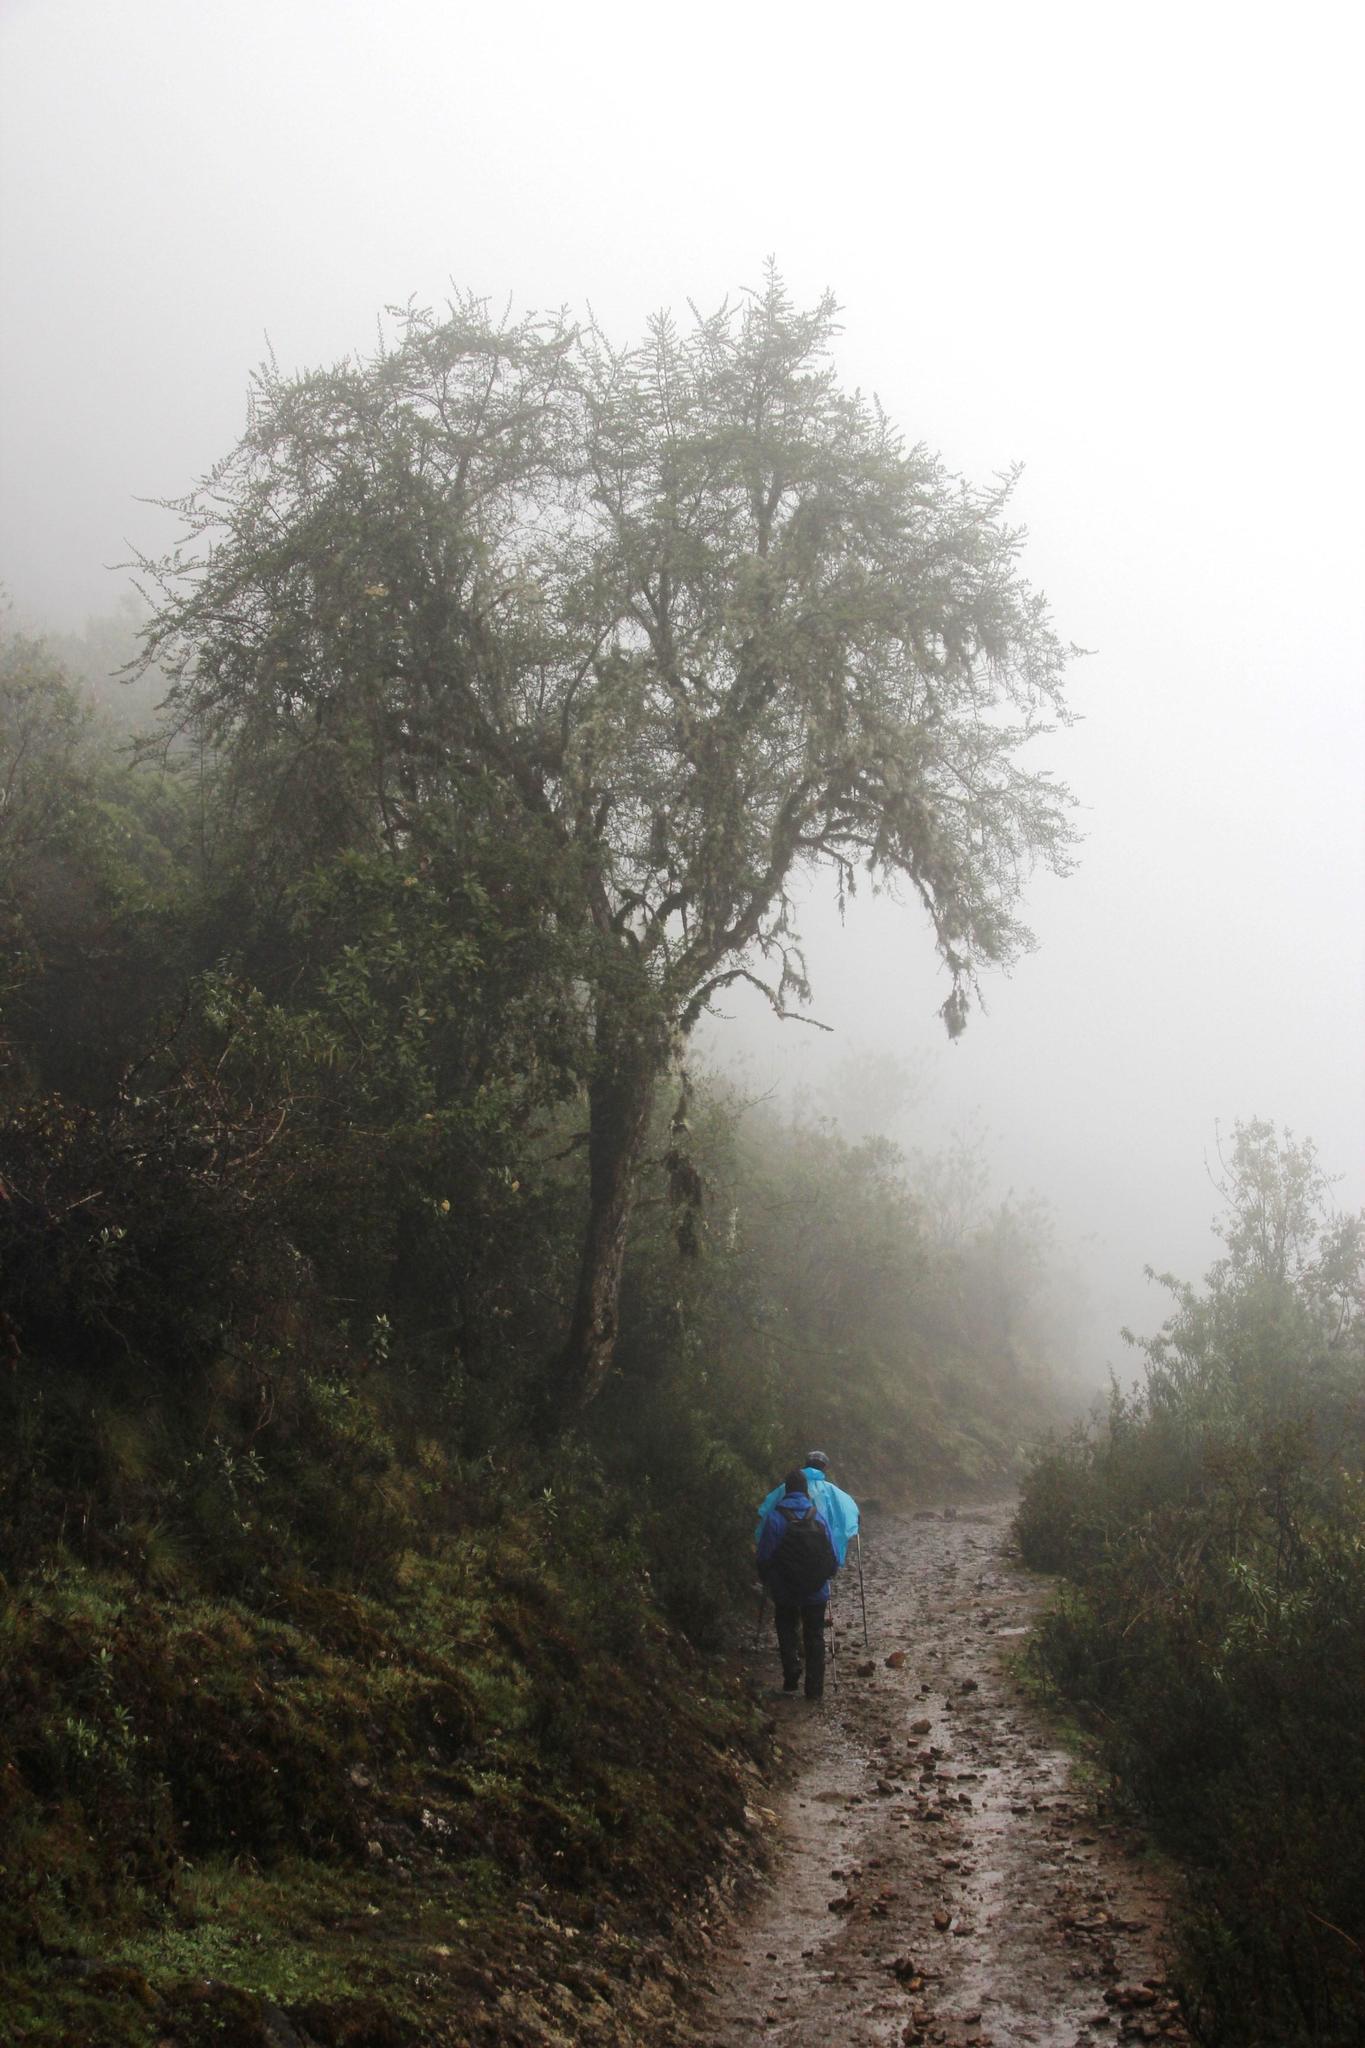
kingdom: Plantae
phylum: Tracheophyta
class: Magnoliopsida
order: Oxalidales
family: Elaeocarpaceae
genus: Vallea
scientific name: Vallea stipularis
